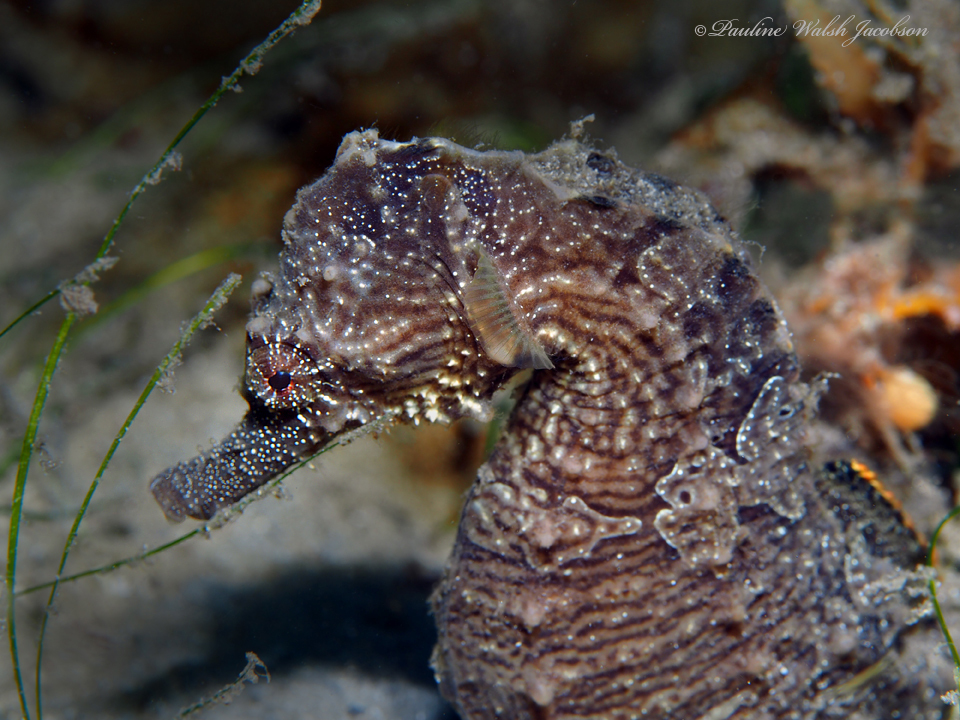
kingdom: Animalia
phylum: Chordata
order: Syngnathiformes
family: Syngnathidae
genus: Hippocampus
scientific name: Hippocampus erectus
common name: Lined seahorse
